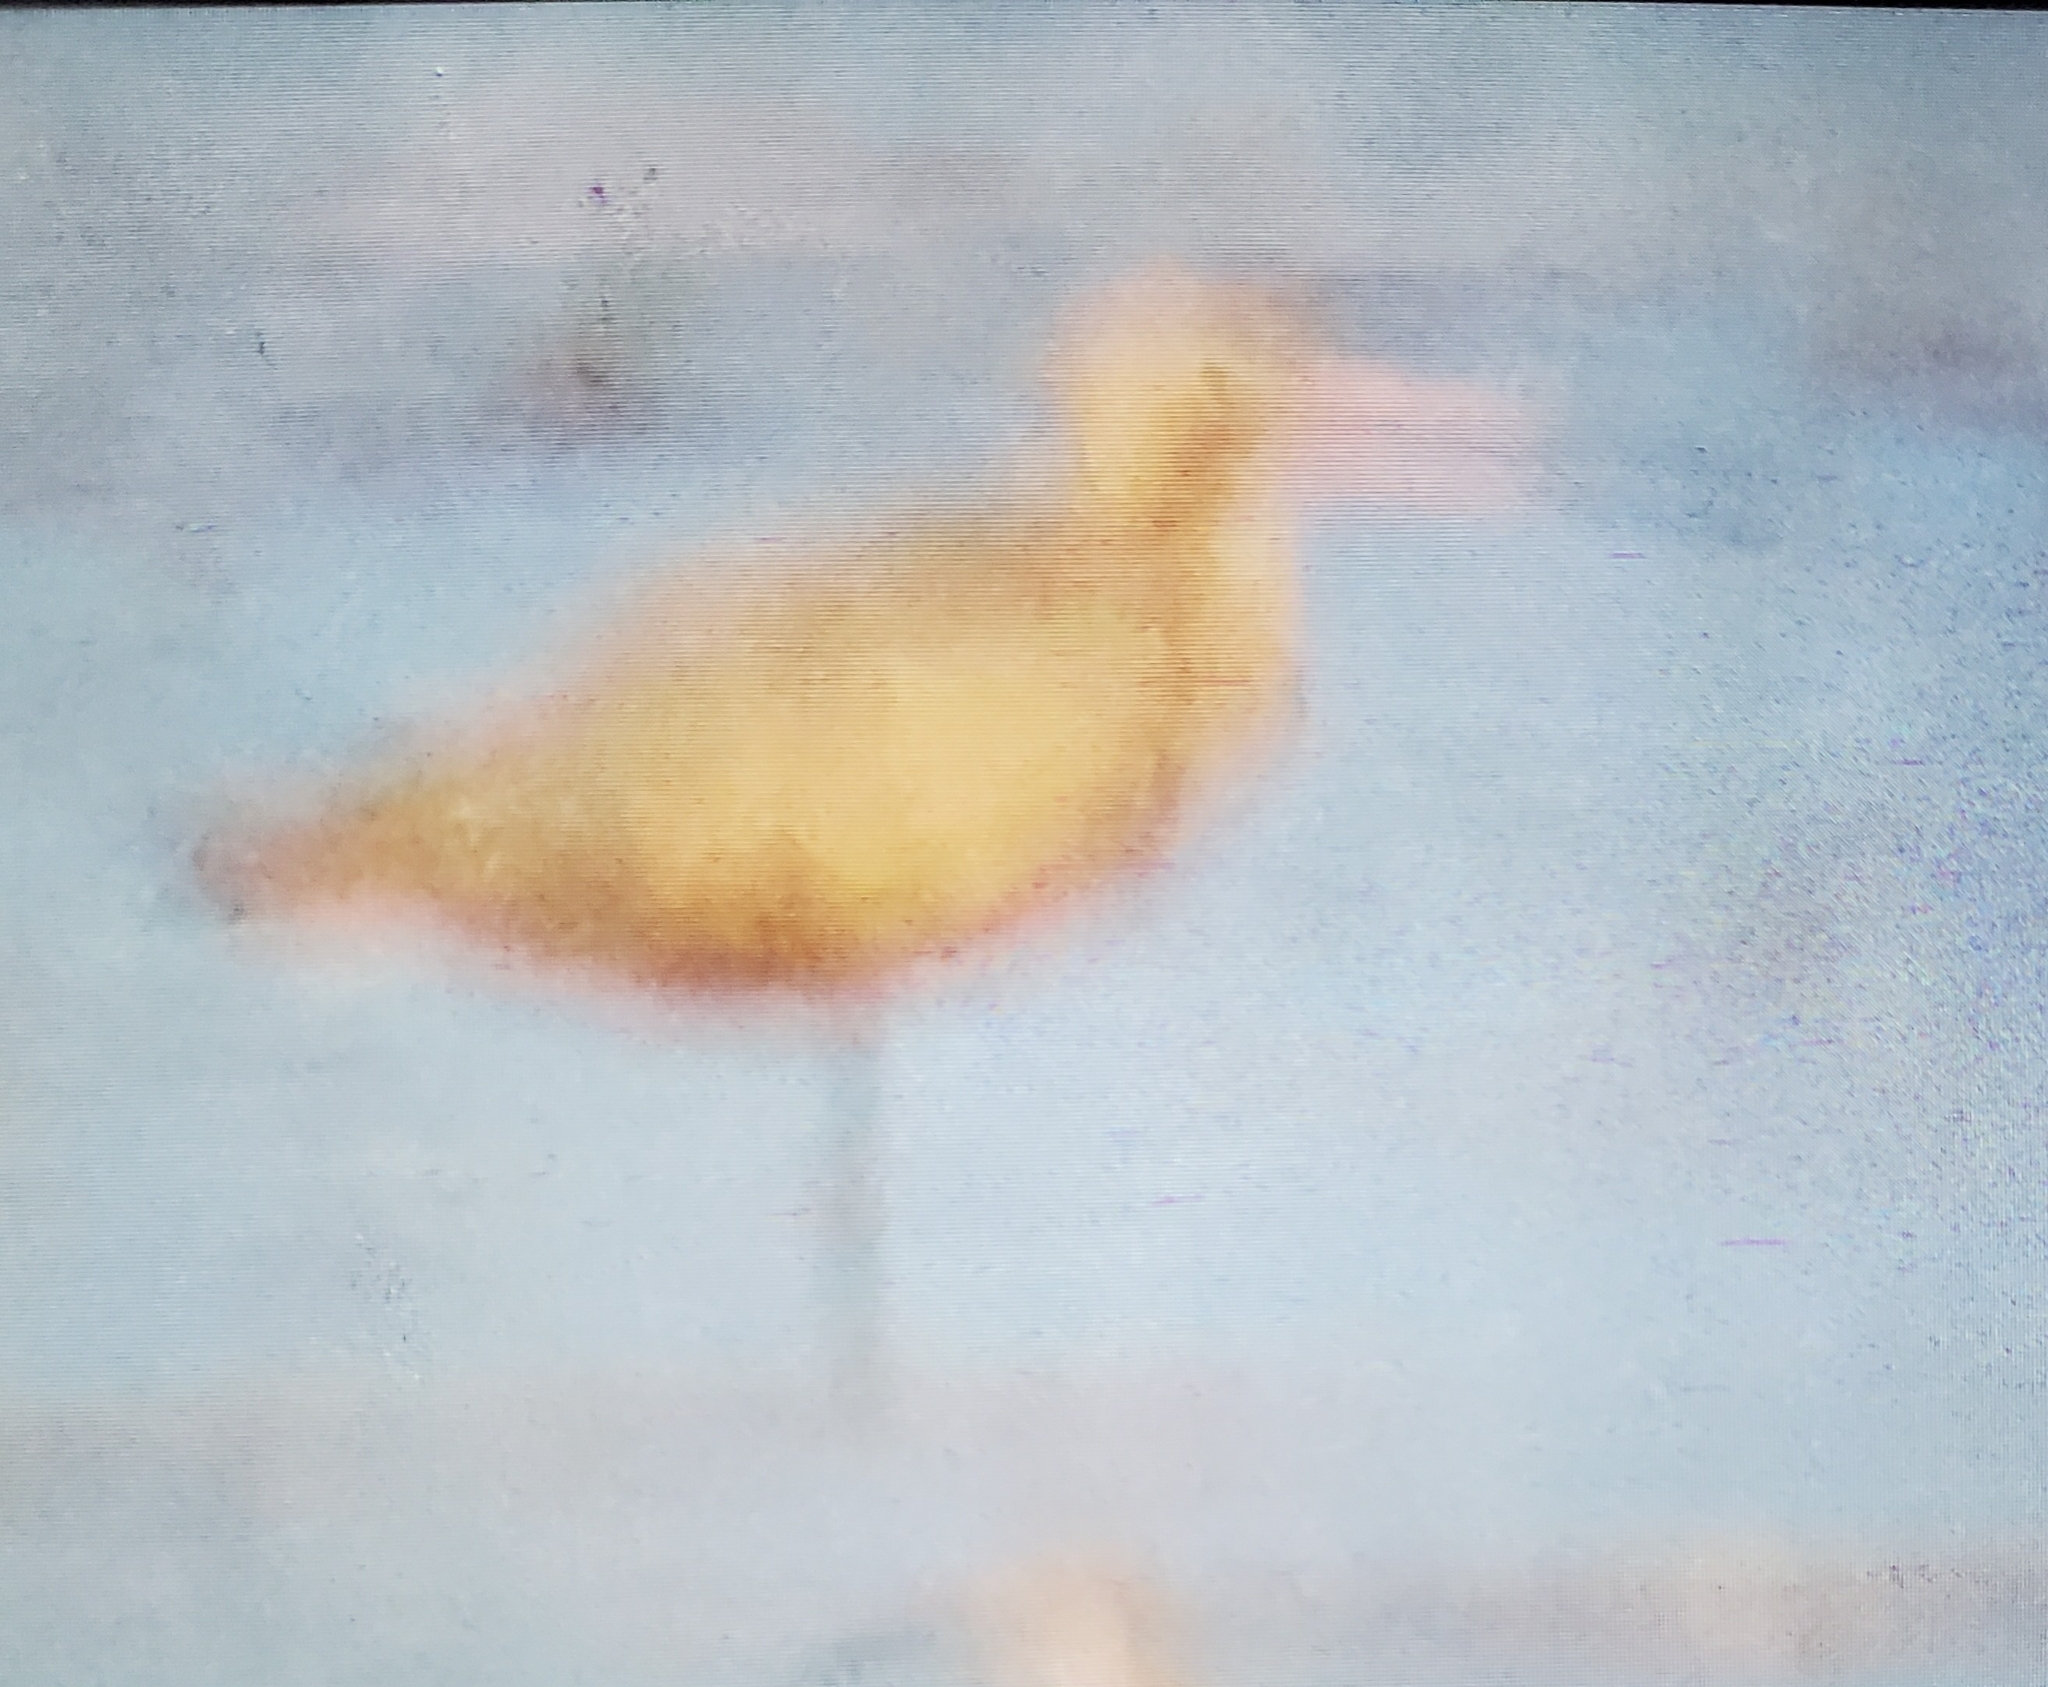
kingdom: Animalia
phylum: Chordata
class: Aves
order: Charadriiformes
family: Scolopacidae
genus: Limosa
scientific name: Limosa fedoa
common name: Marbled godwit
